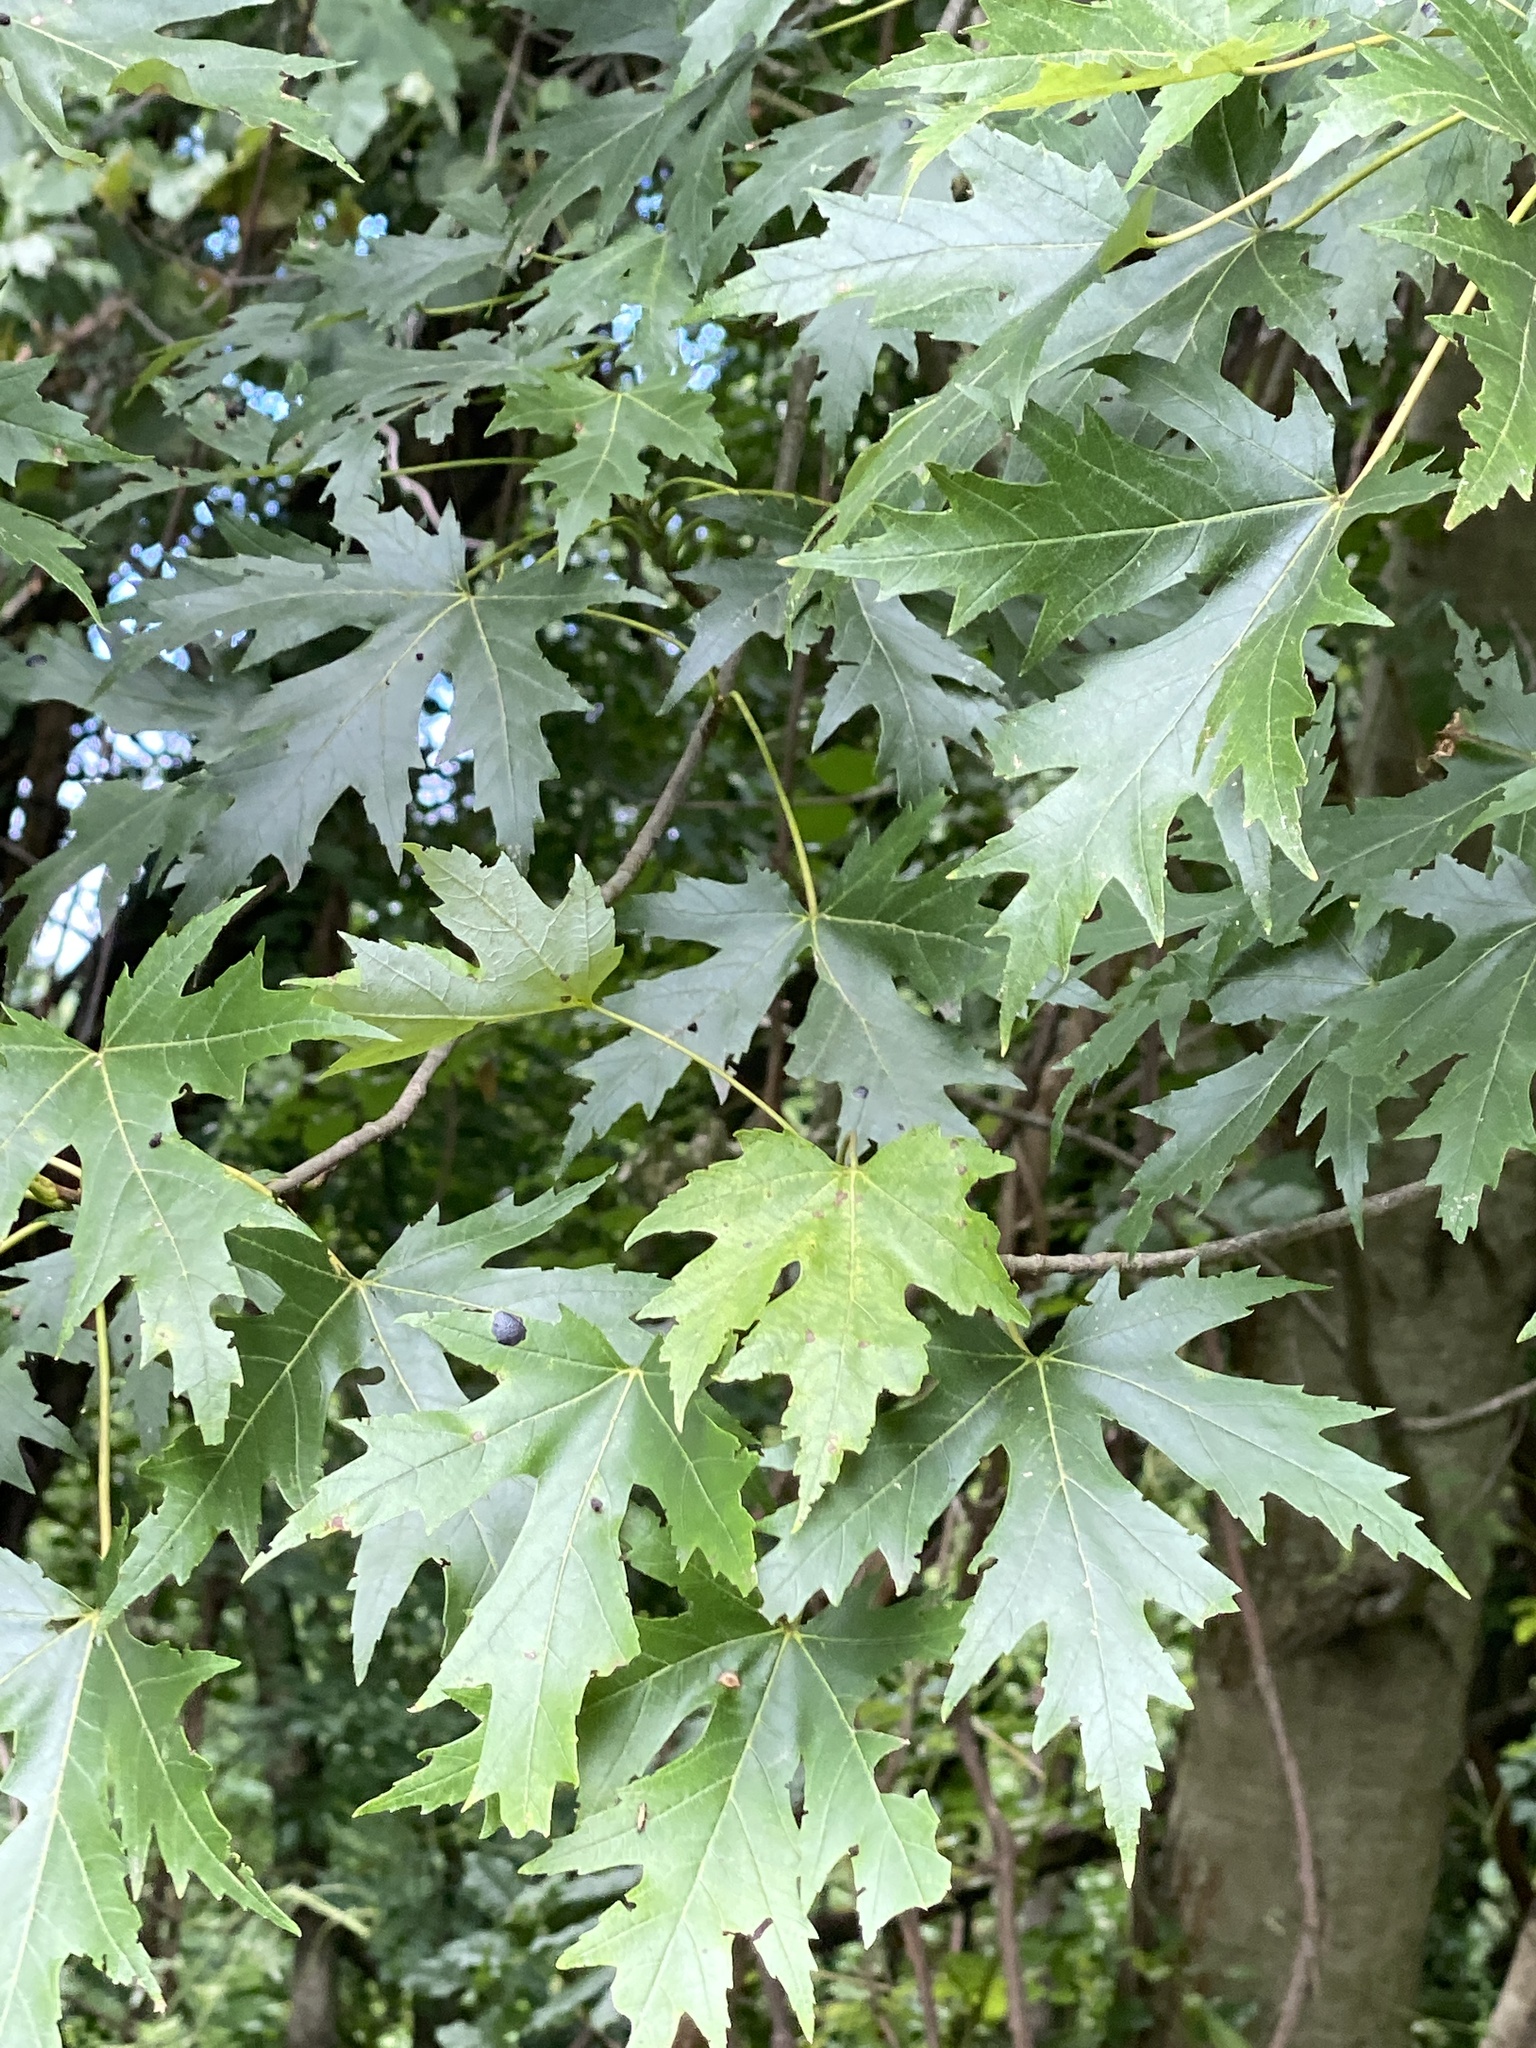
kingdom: Plantae
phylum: Tracheophyta
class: Magnoliopsida
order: Sapindales
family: Sapindaceae
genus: Acer
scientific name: Acer saccharinum
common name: Silver maple
